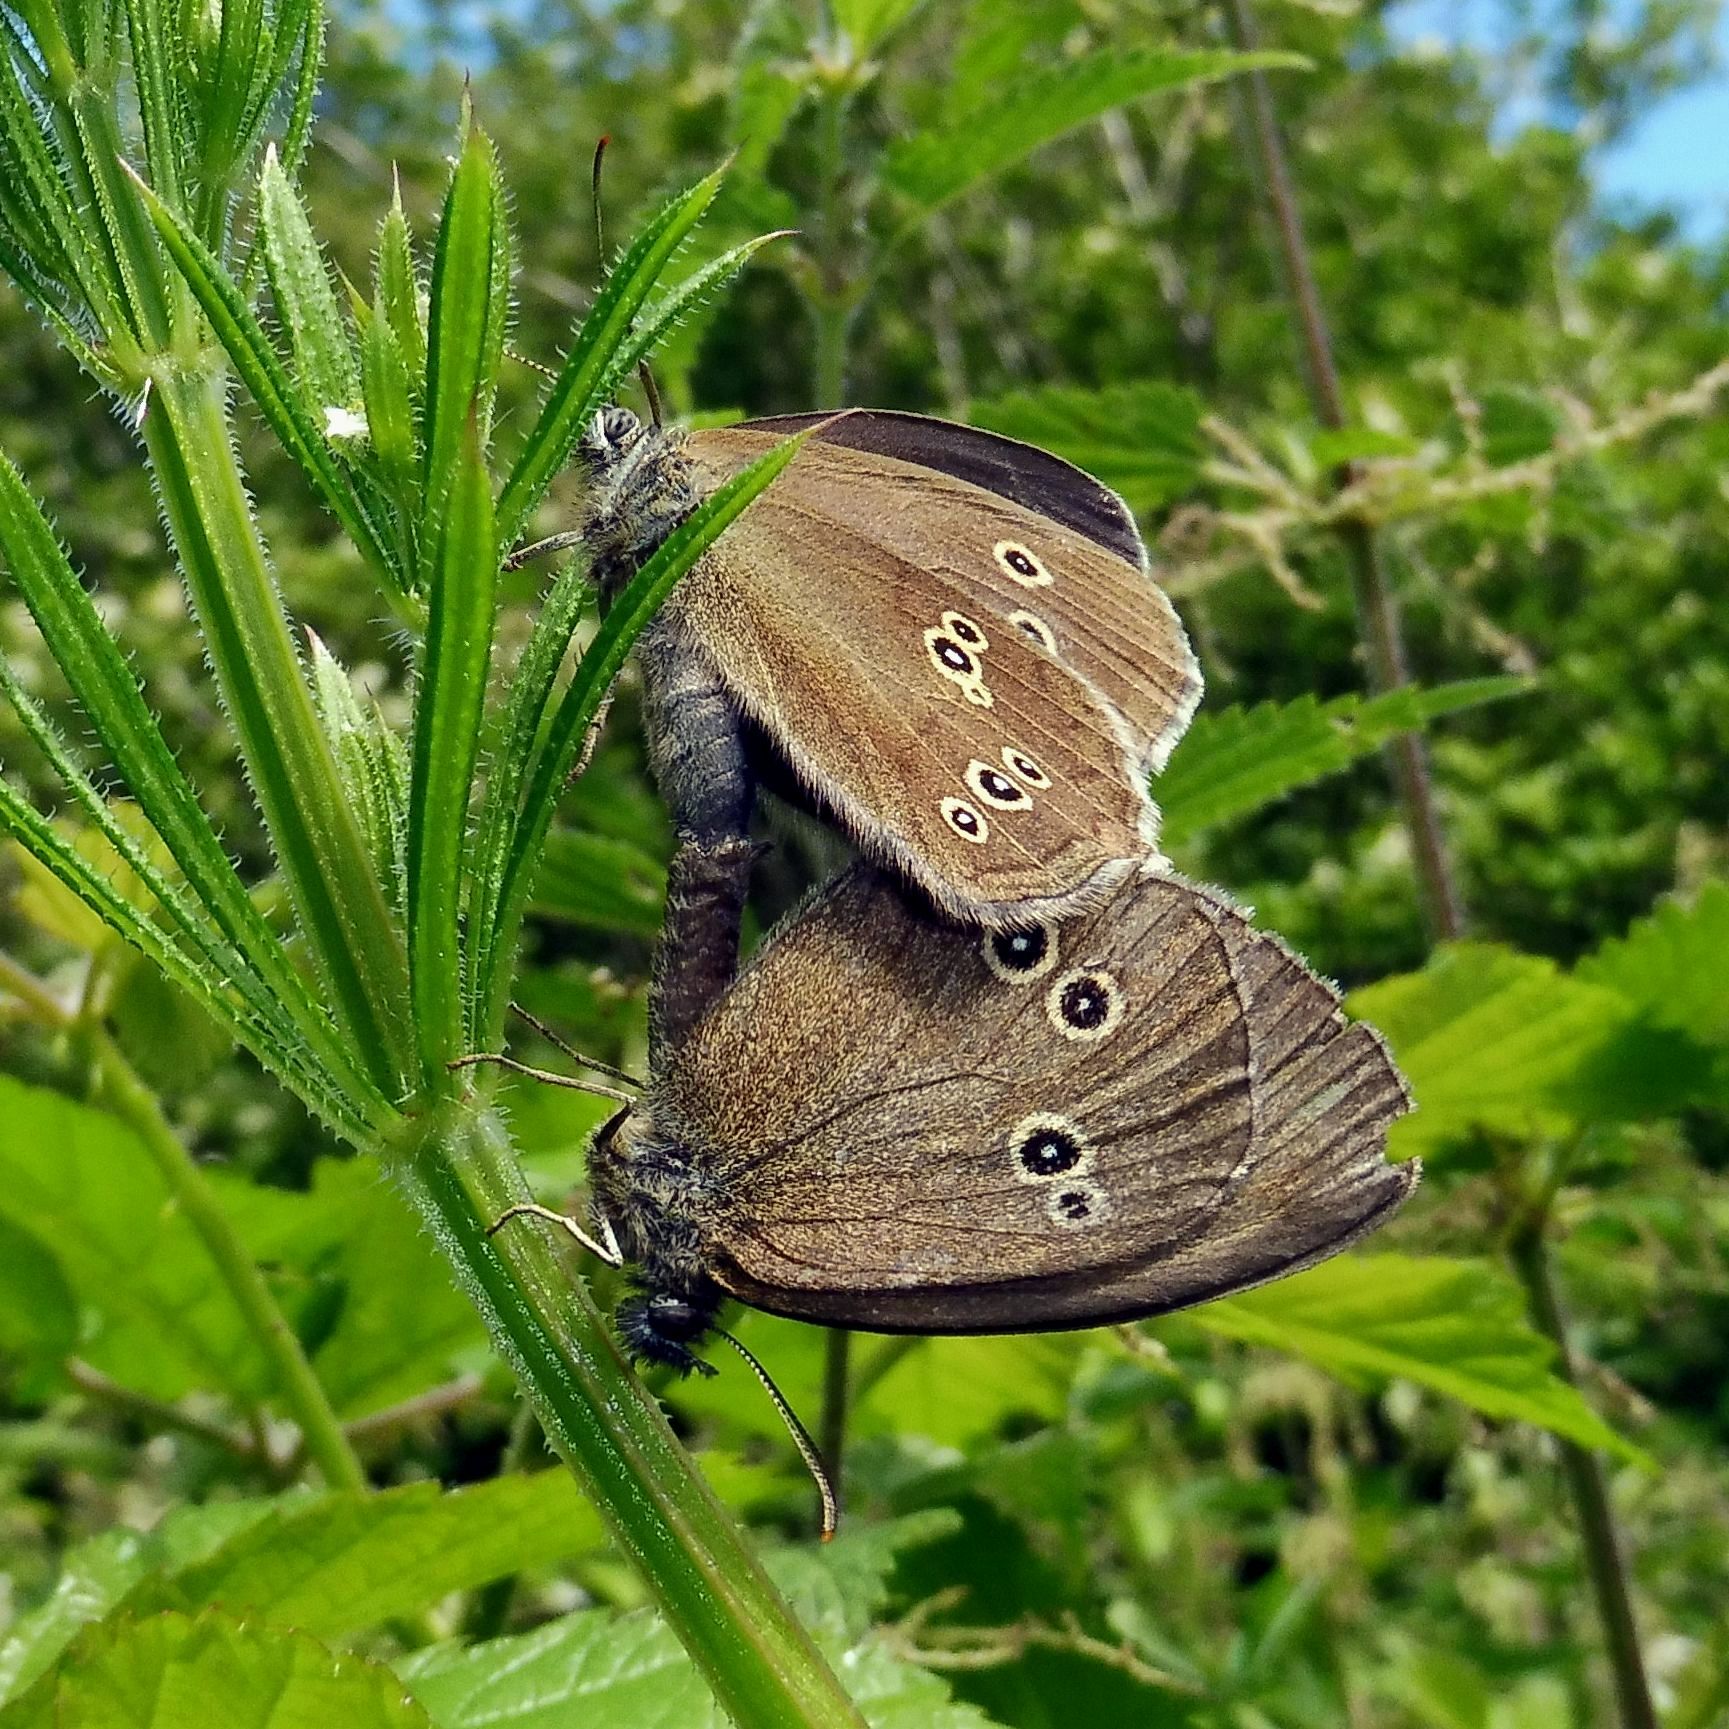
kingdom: Animalia
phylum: Arthropoda
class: Insecta
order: Lepidoptera
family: Nymphalidae
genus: Aphantopus
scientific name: Aphantopus hyperantus
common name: Ringlet
